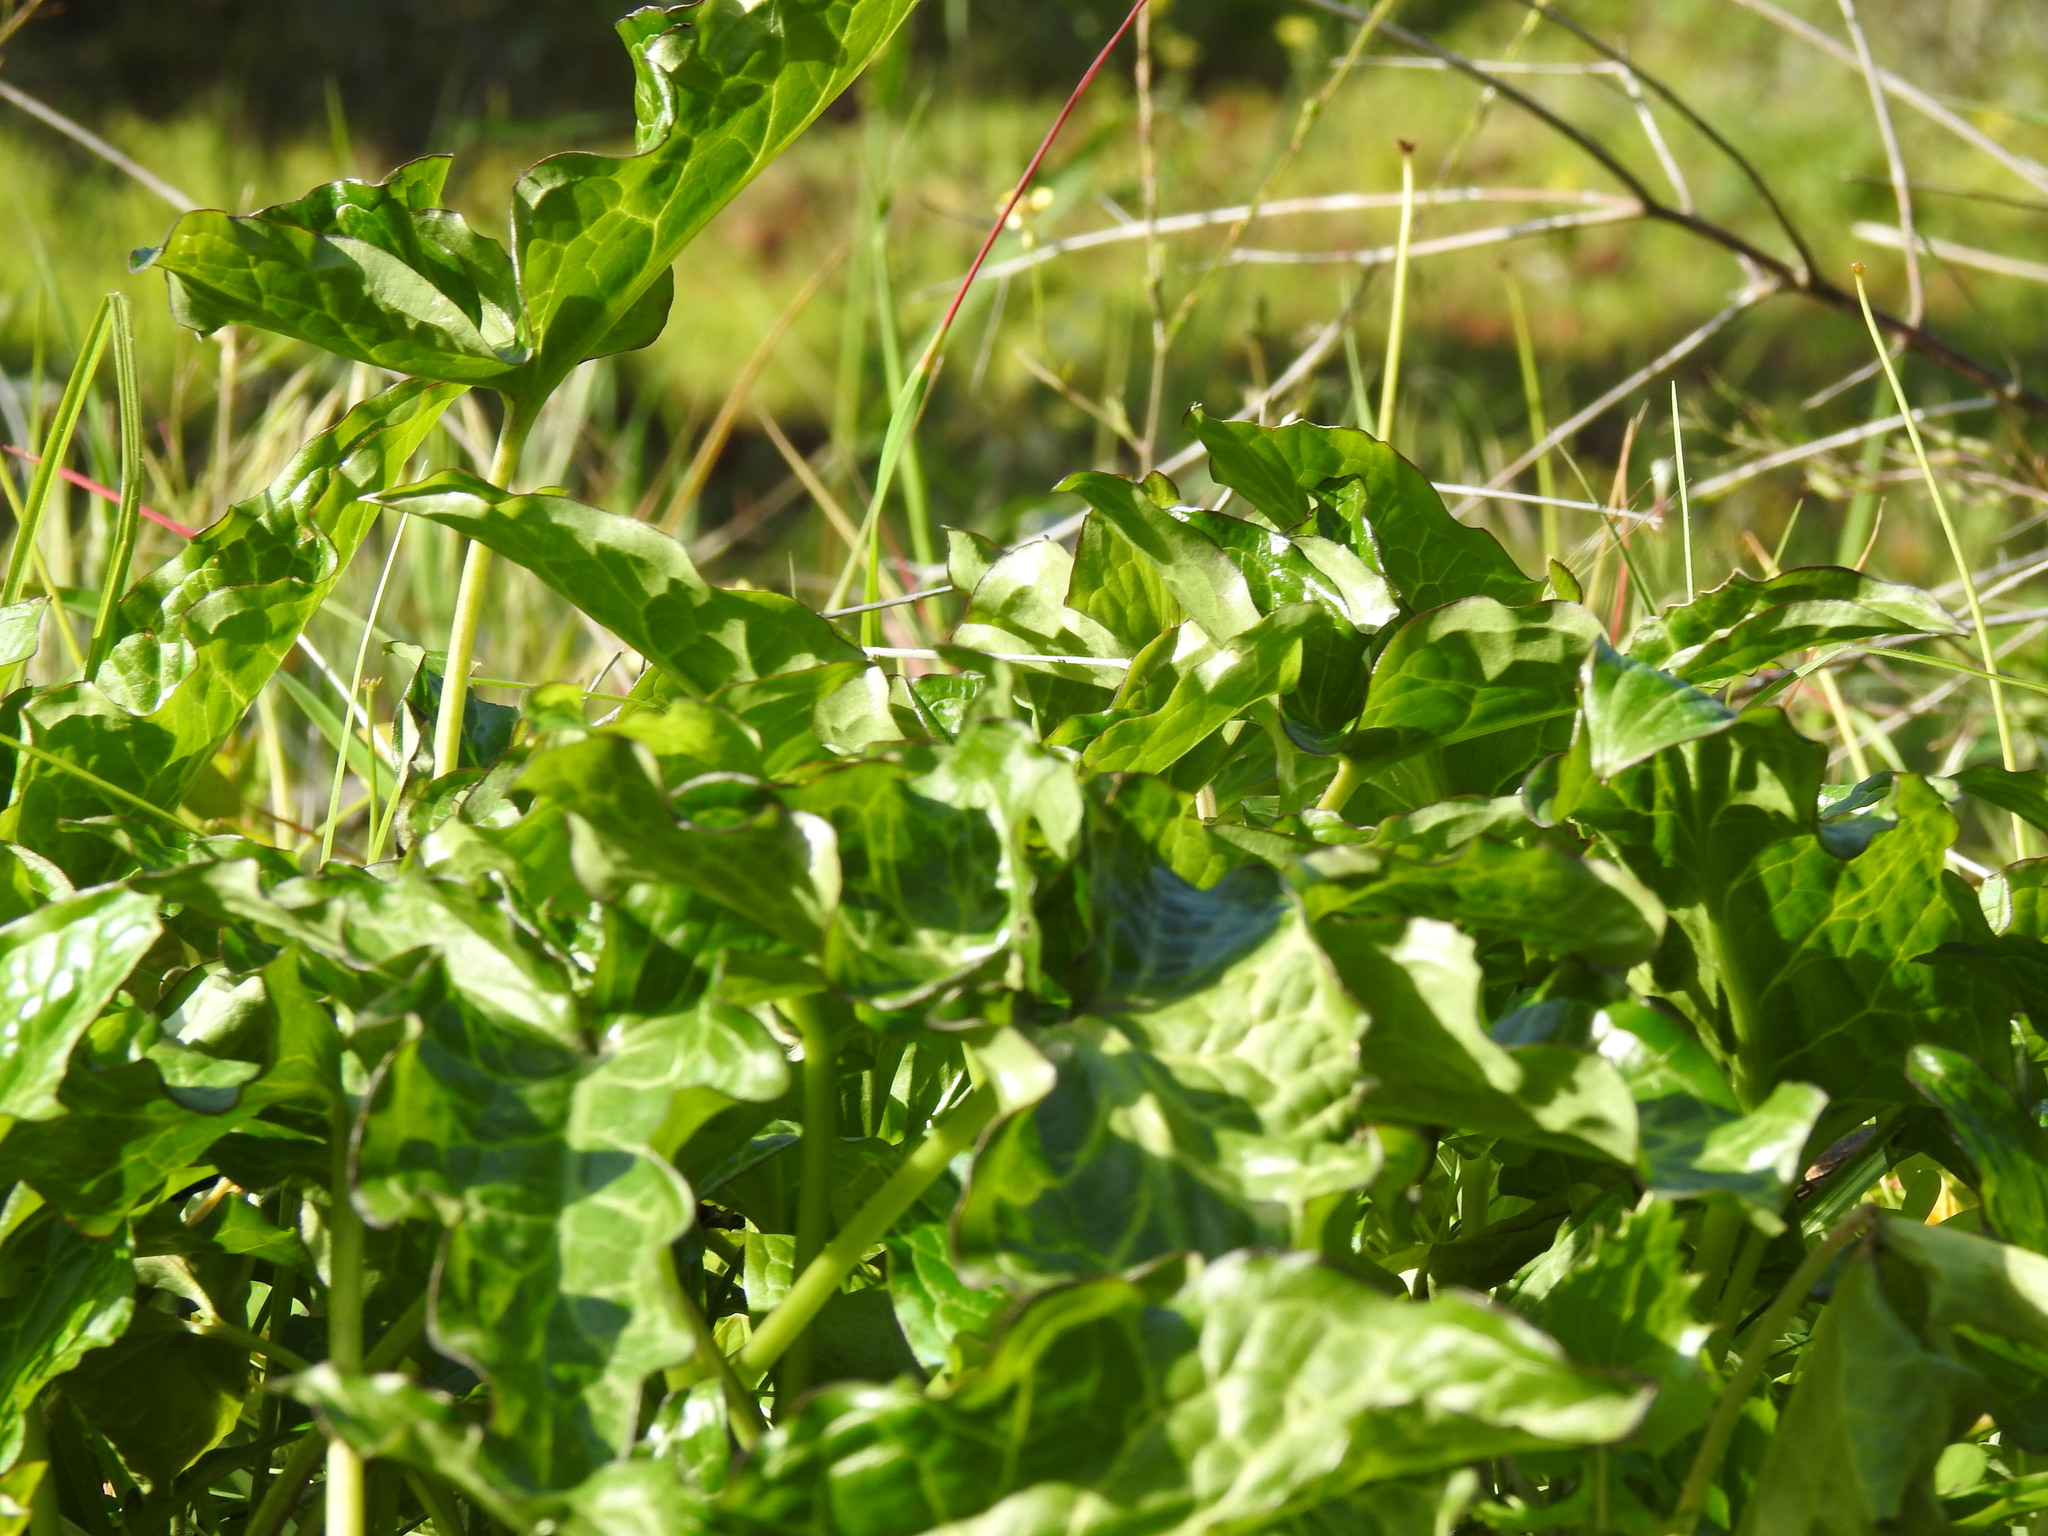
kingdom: Plantae
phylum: Tracheophyta
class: Liliopsida
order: Alismatales
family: Araceae
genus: Arum
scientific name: Arum italicum
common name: Italian lords-and-ladies
